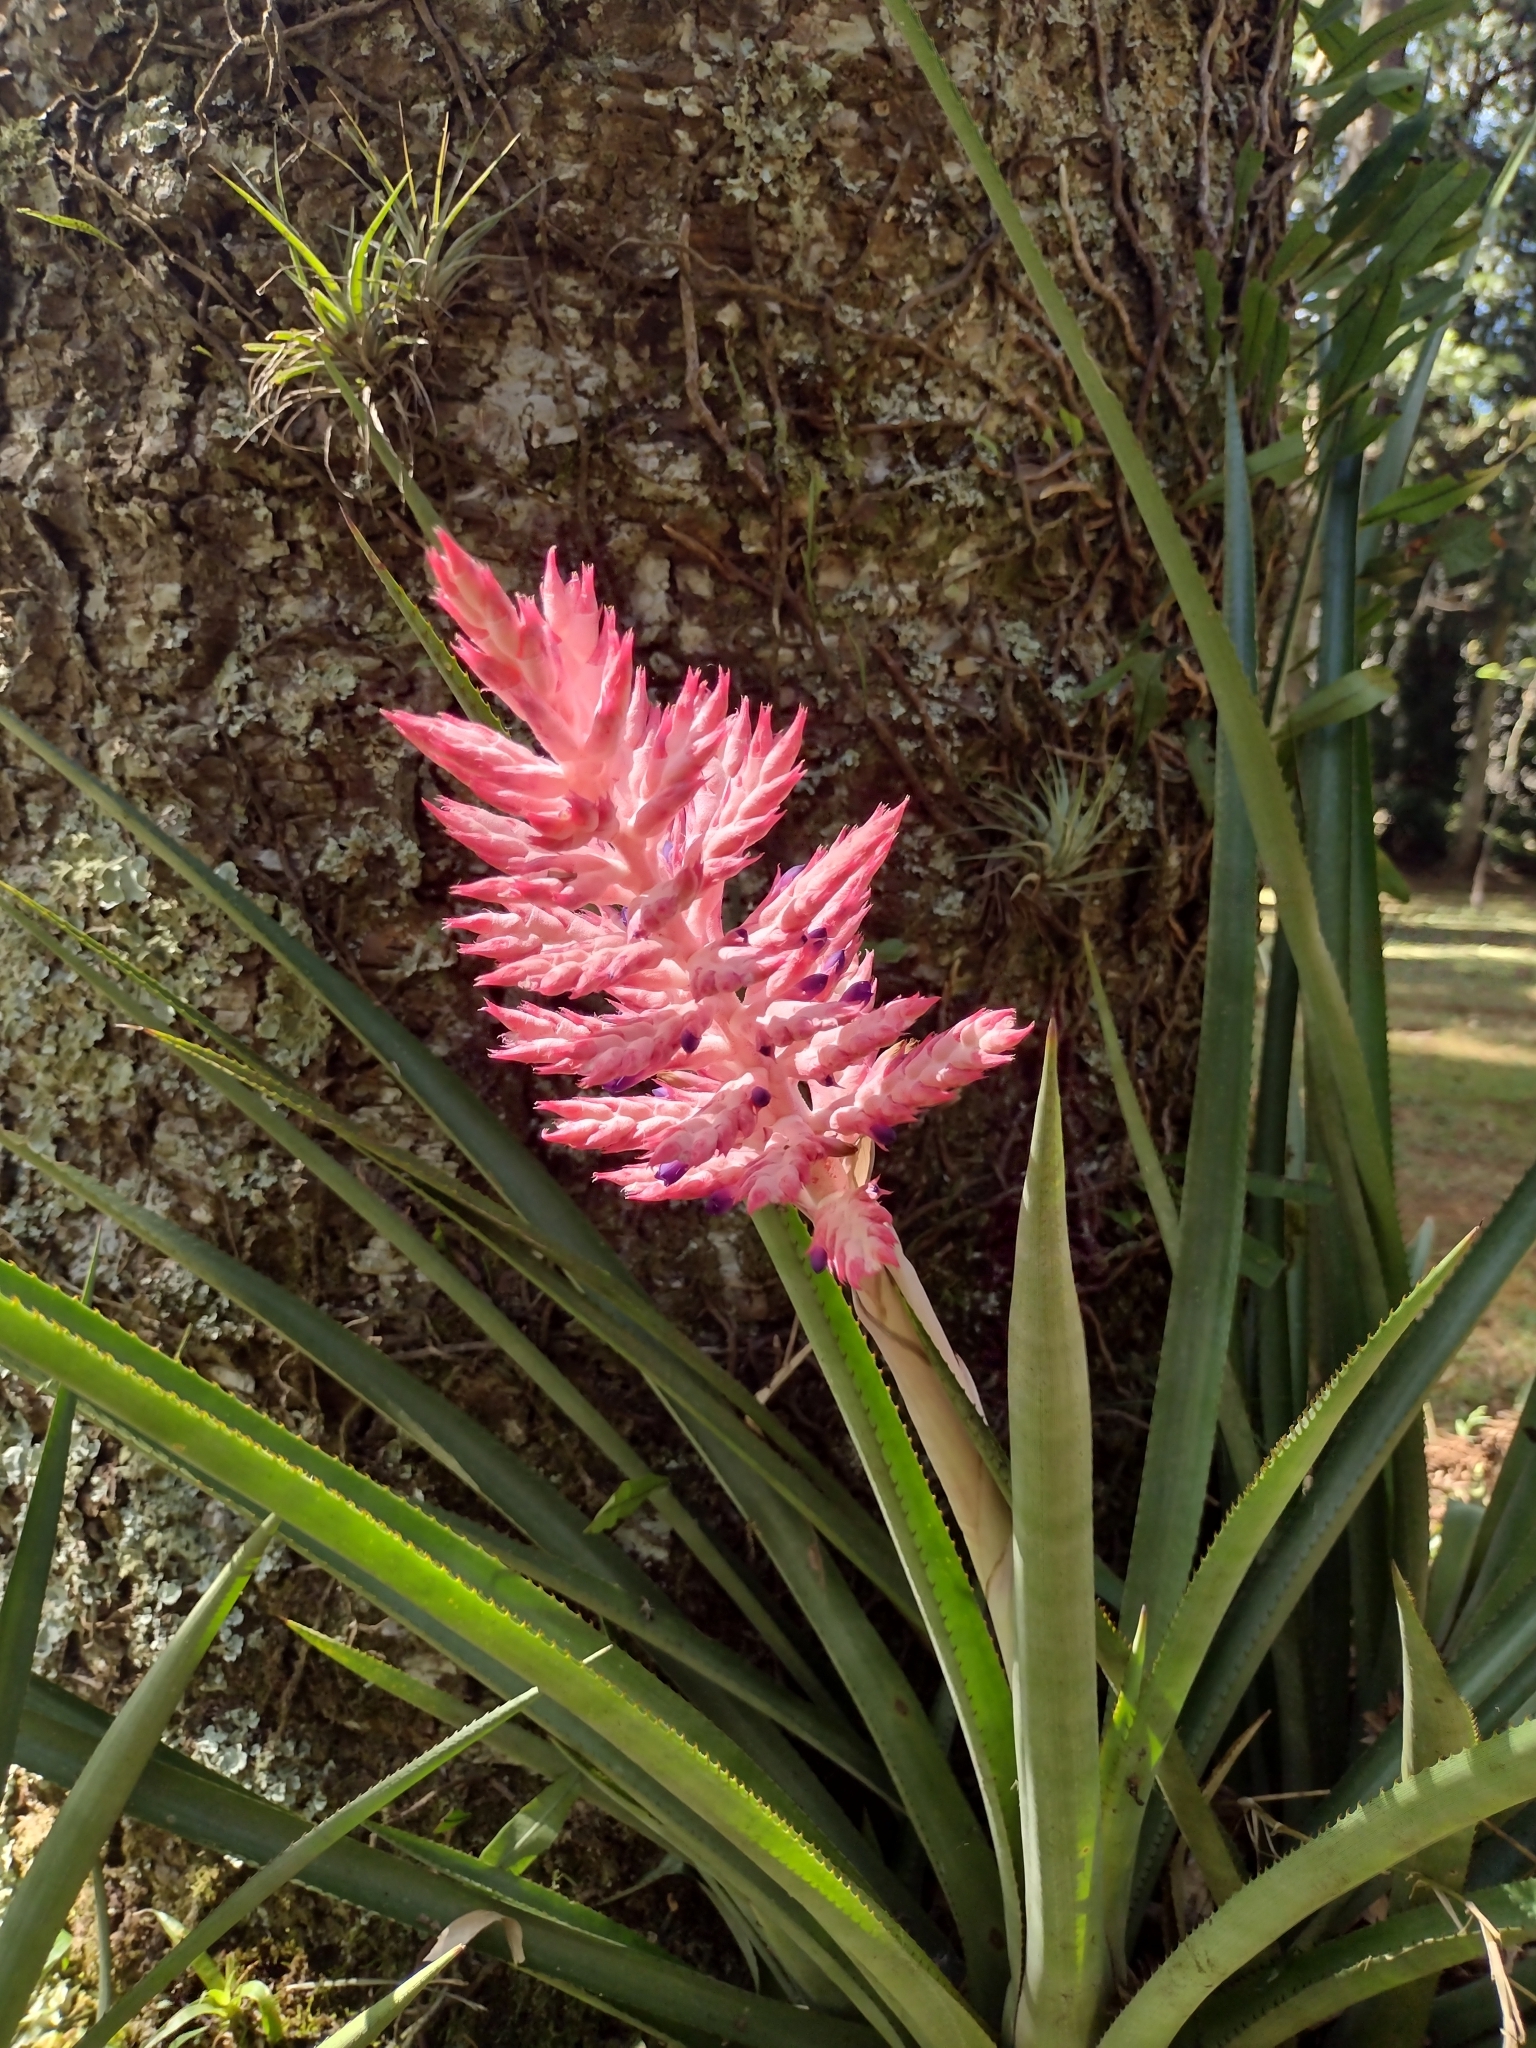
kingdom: Plantae
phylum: Tracheophyta
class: Liliopsida
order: Poales
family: Bromeliaceae
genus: Aechmea
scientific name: Aechmea distichantha
